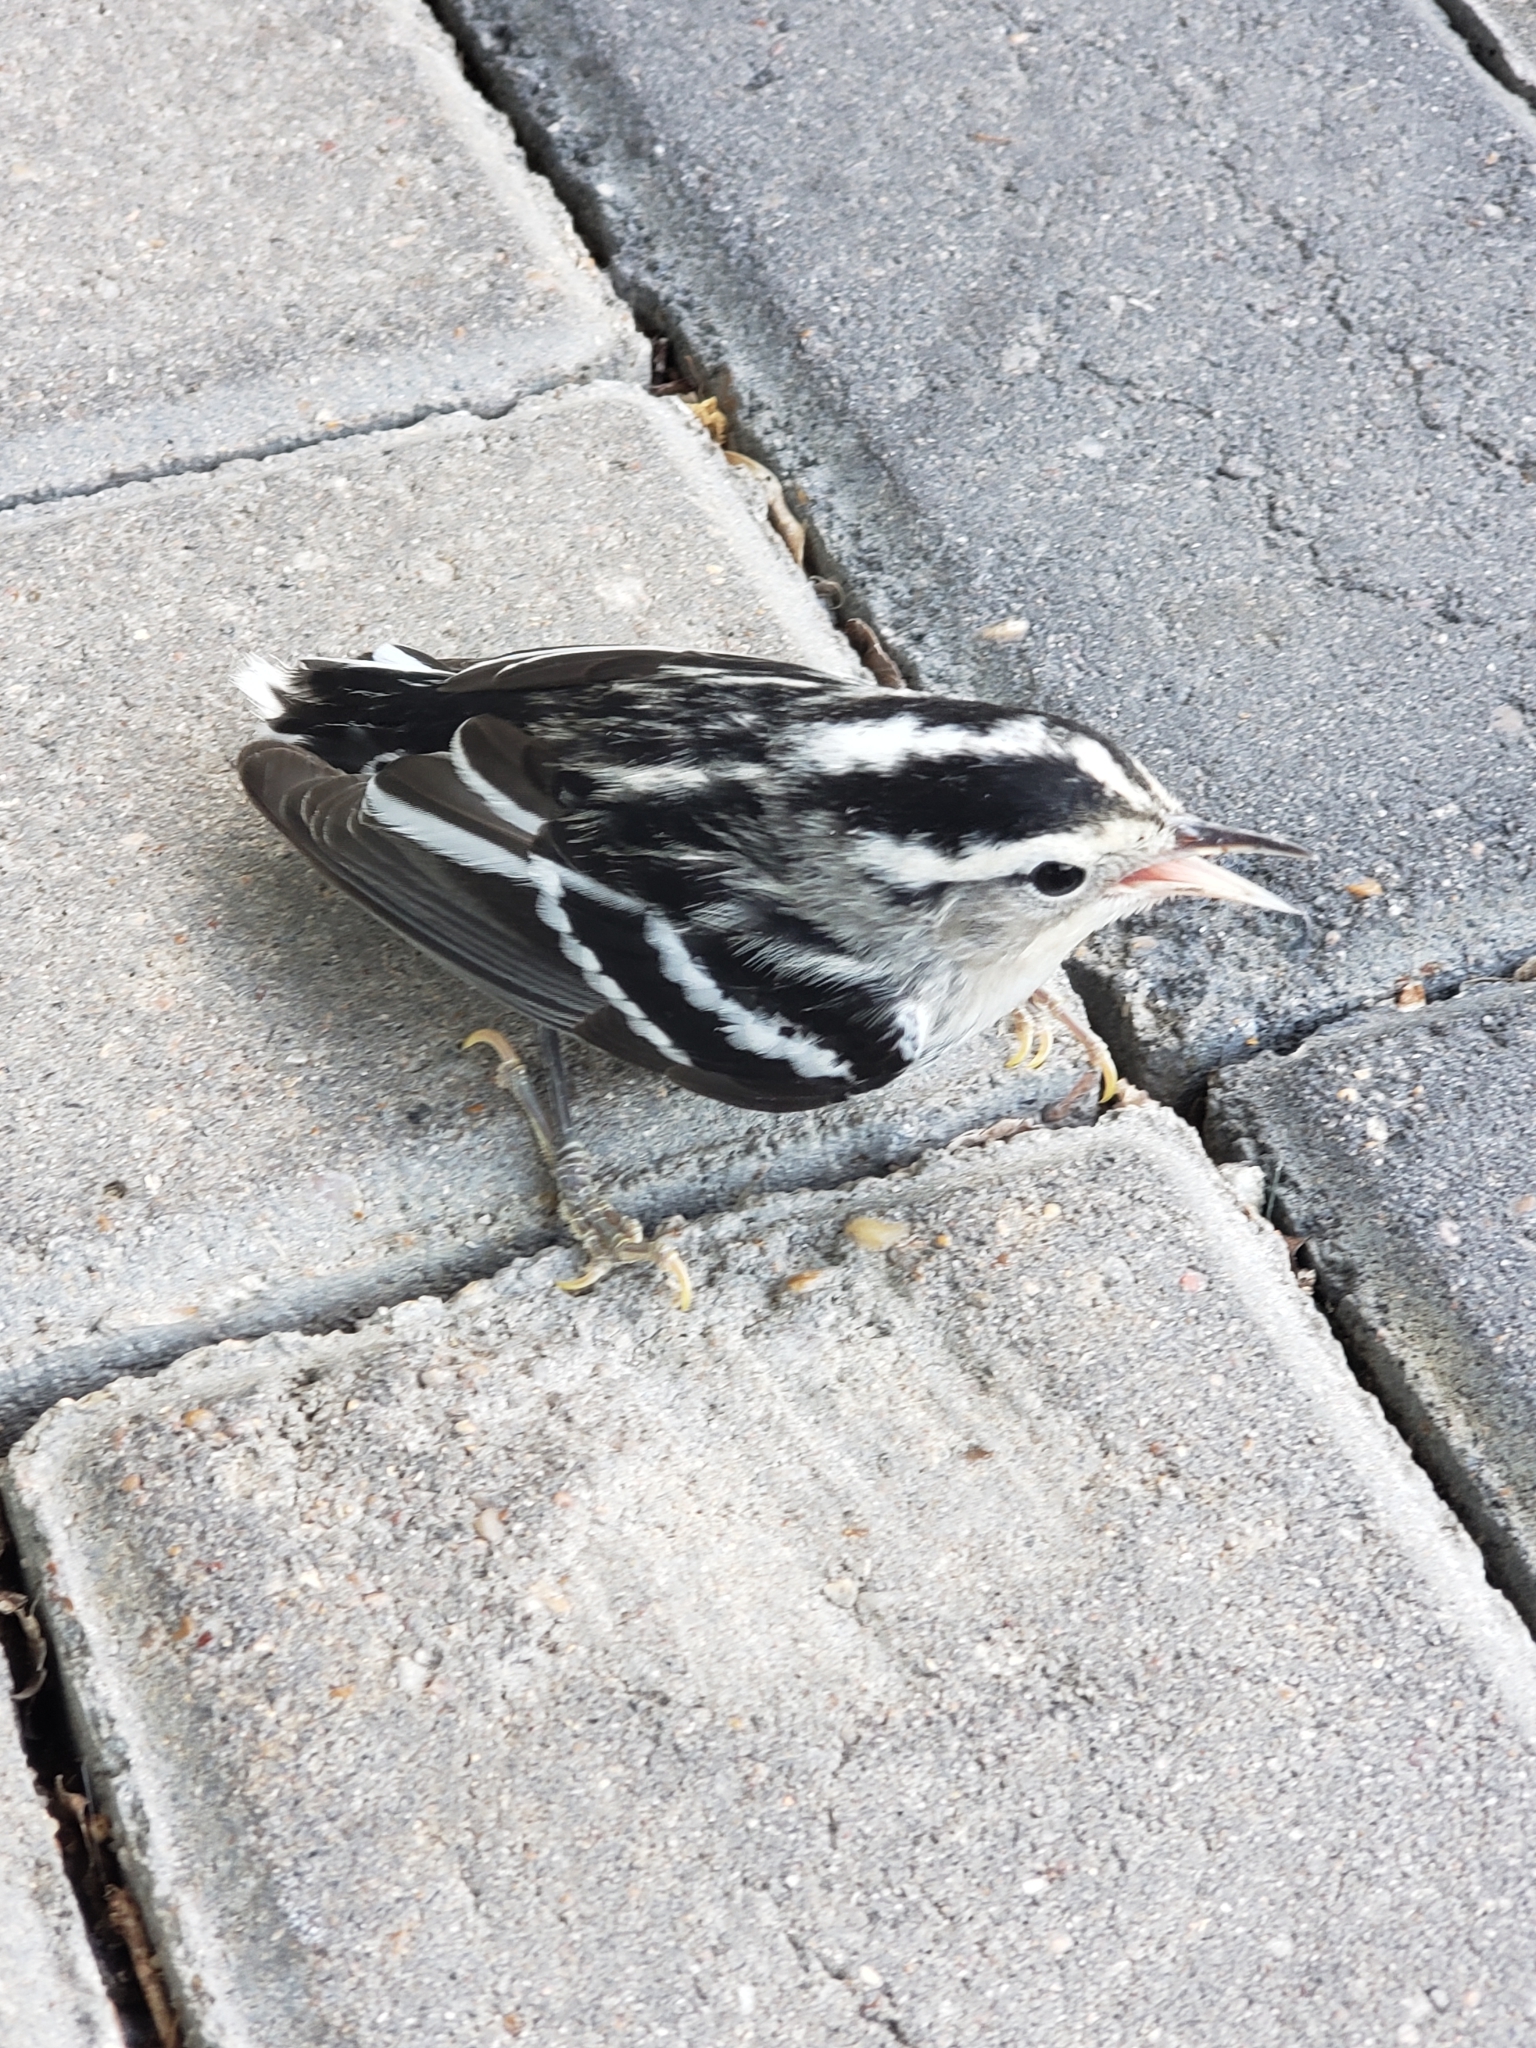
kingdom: Animalia
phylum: Chordata
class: Aves
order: Passeriformes
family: Parulidae
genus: Mniotilta
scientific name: Mniotilta varia
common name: Black-and-white warbler
